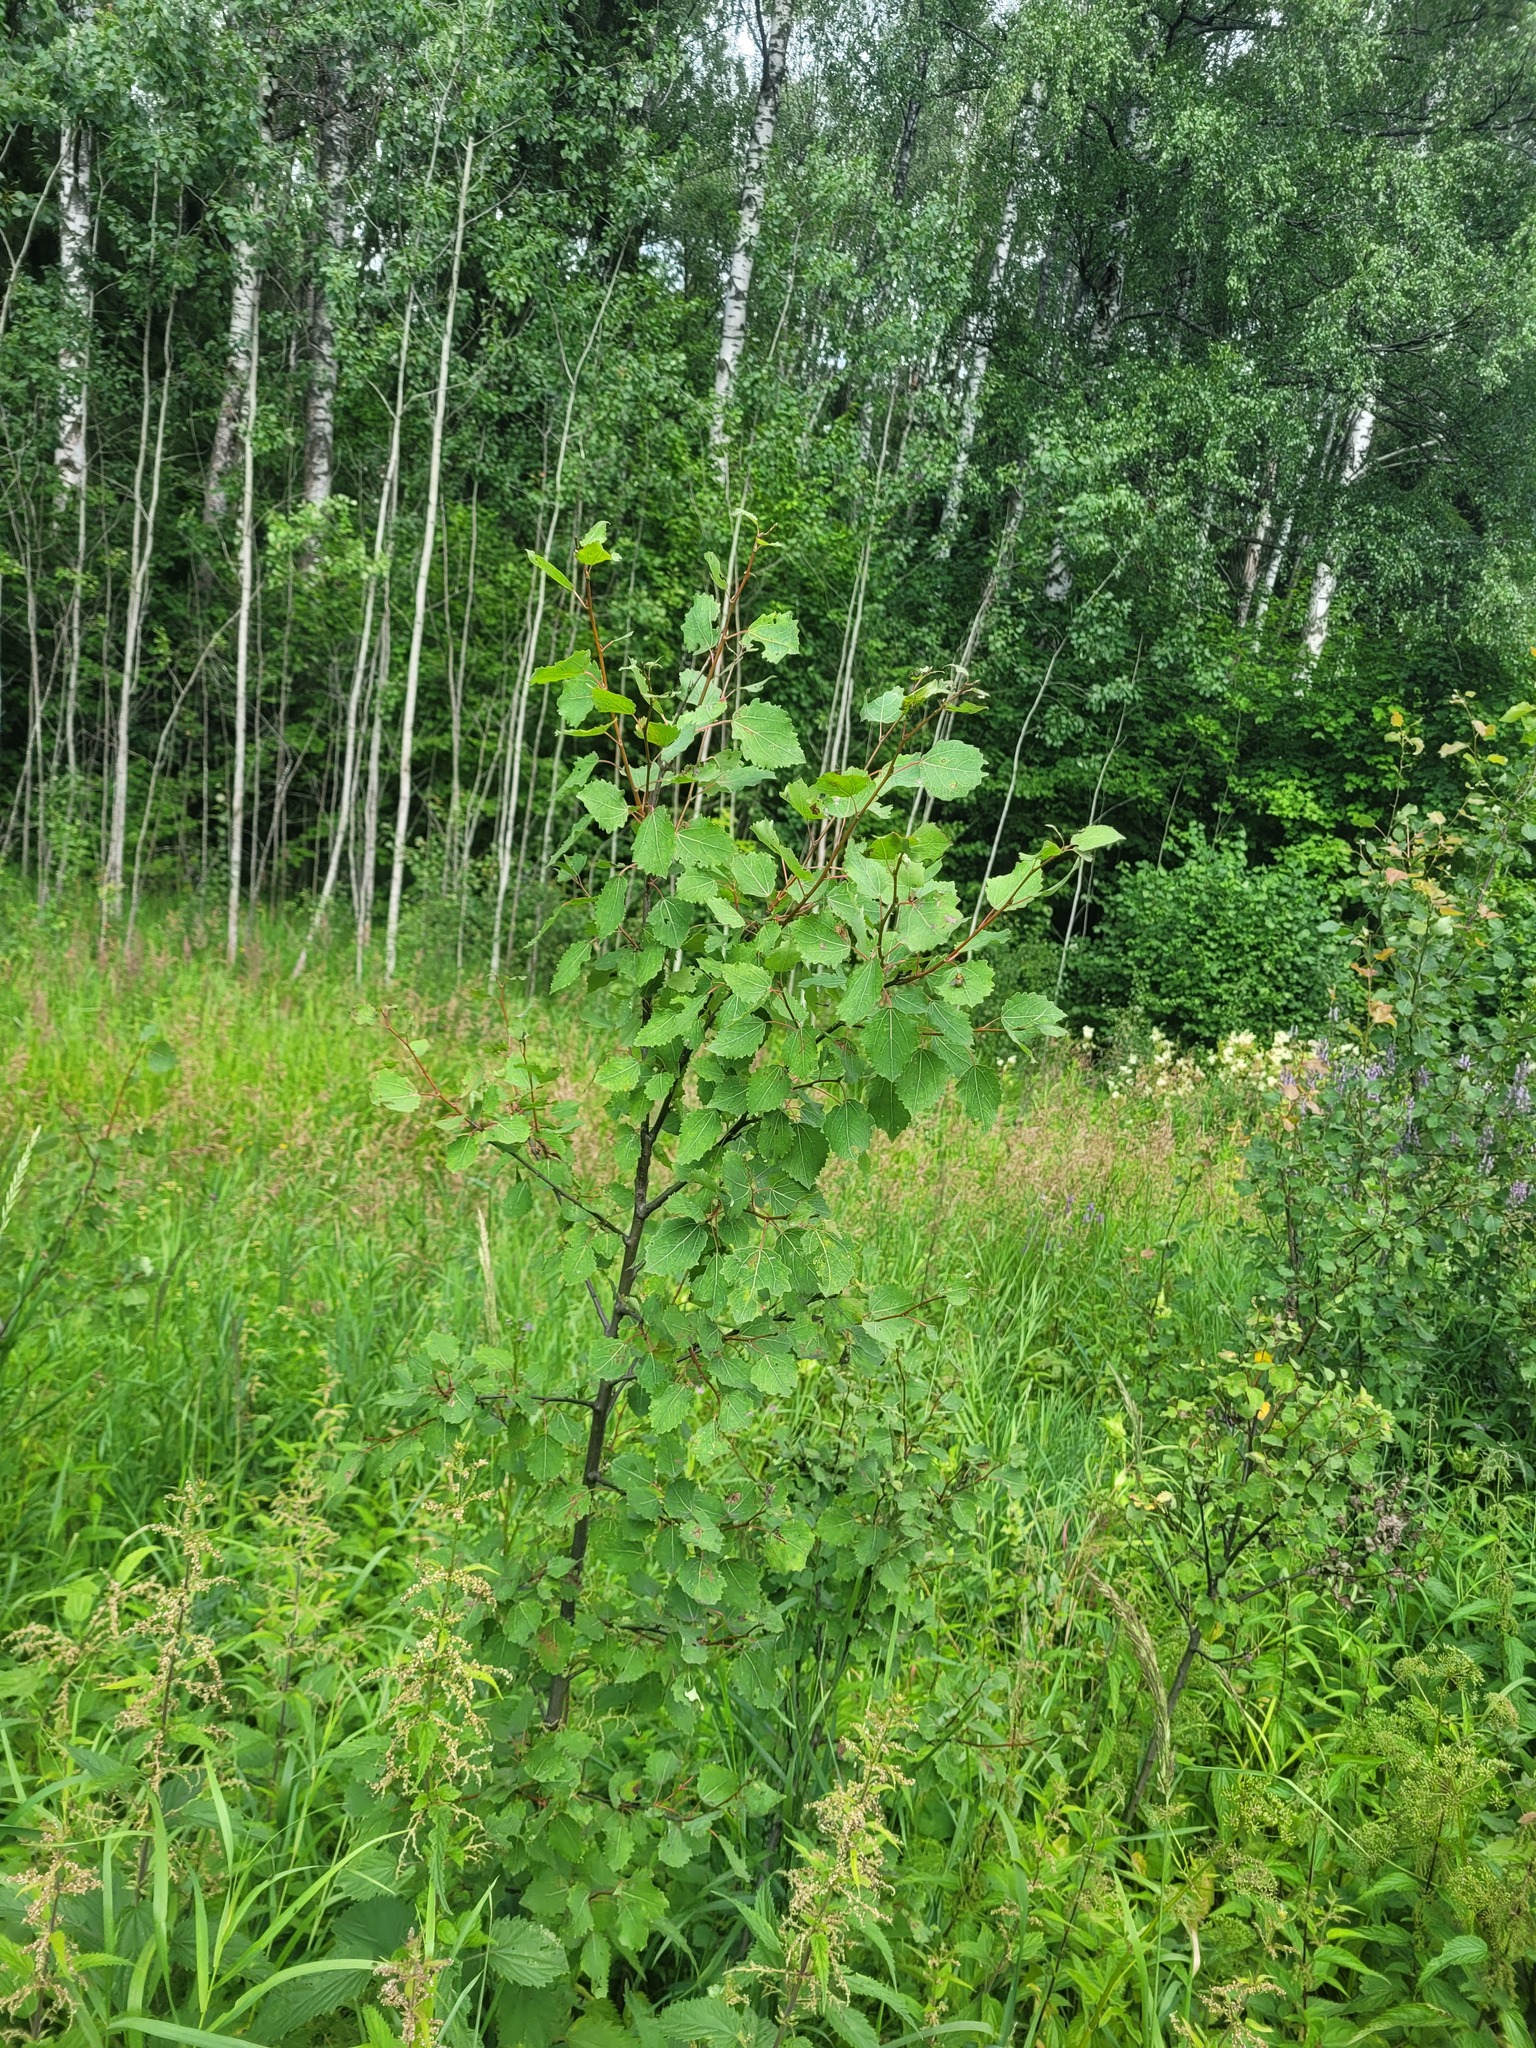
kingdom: Plantae
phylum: Tracheophyta
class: Magnoliopsida
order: Malpighiales
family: Salicaceae
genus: Populus
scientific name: Populus tremula
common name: European aspen
